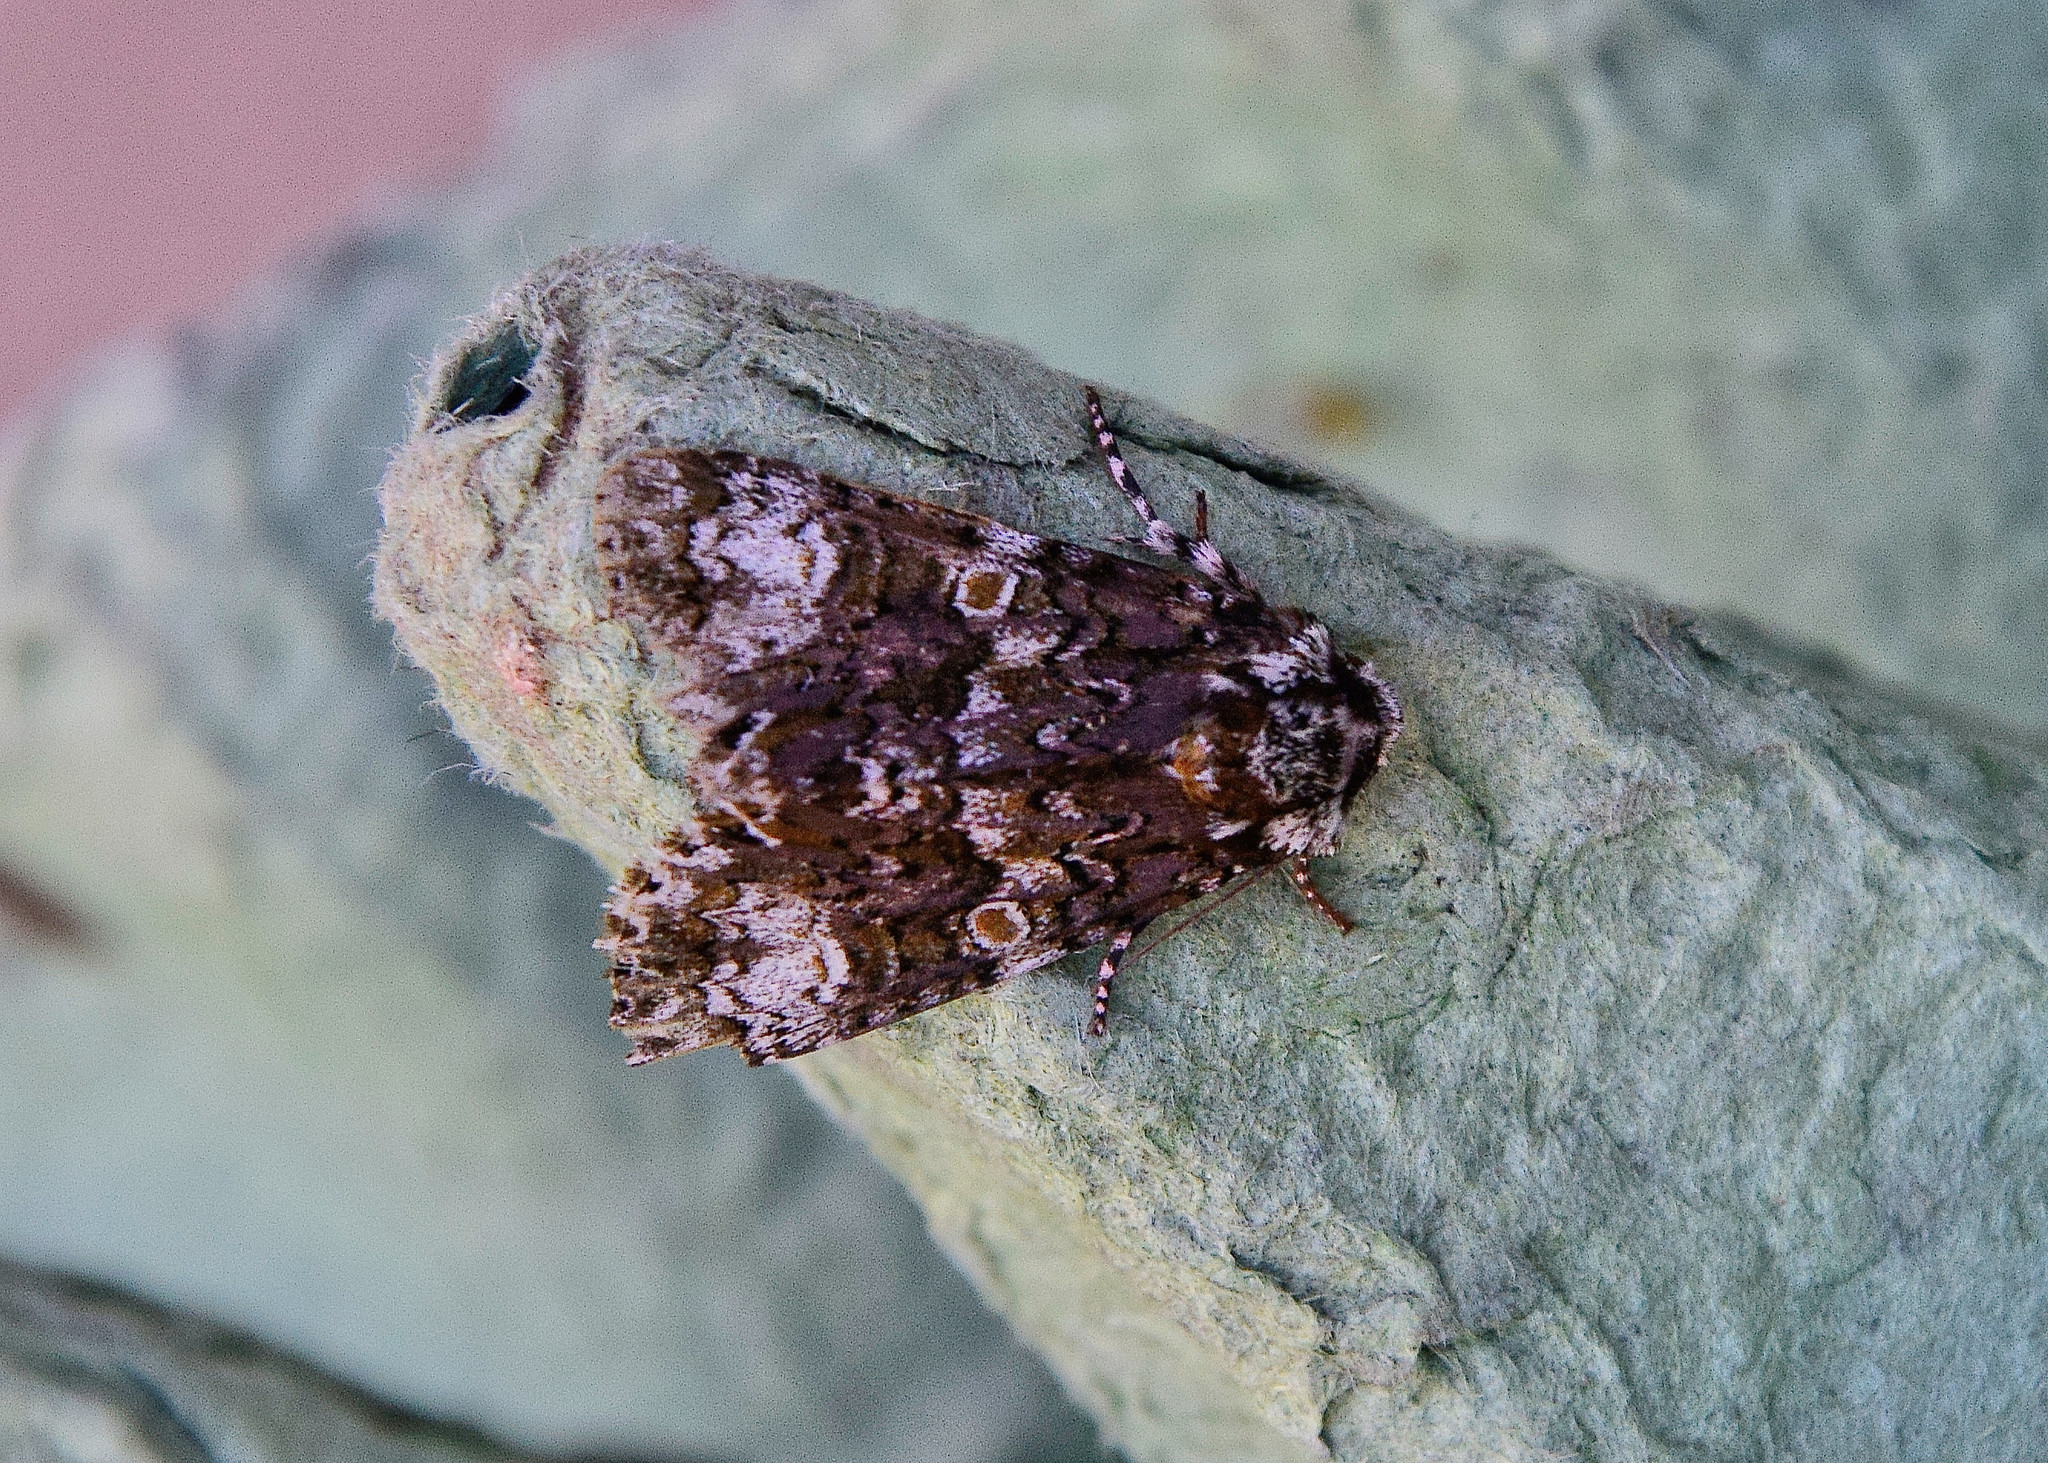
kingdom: Animalia
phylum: Arthropoda
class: Insecta
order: Lepidoptera
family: Noctuidae
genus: Craniophora
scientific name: Craniophora ligustri
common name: Coronet
